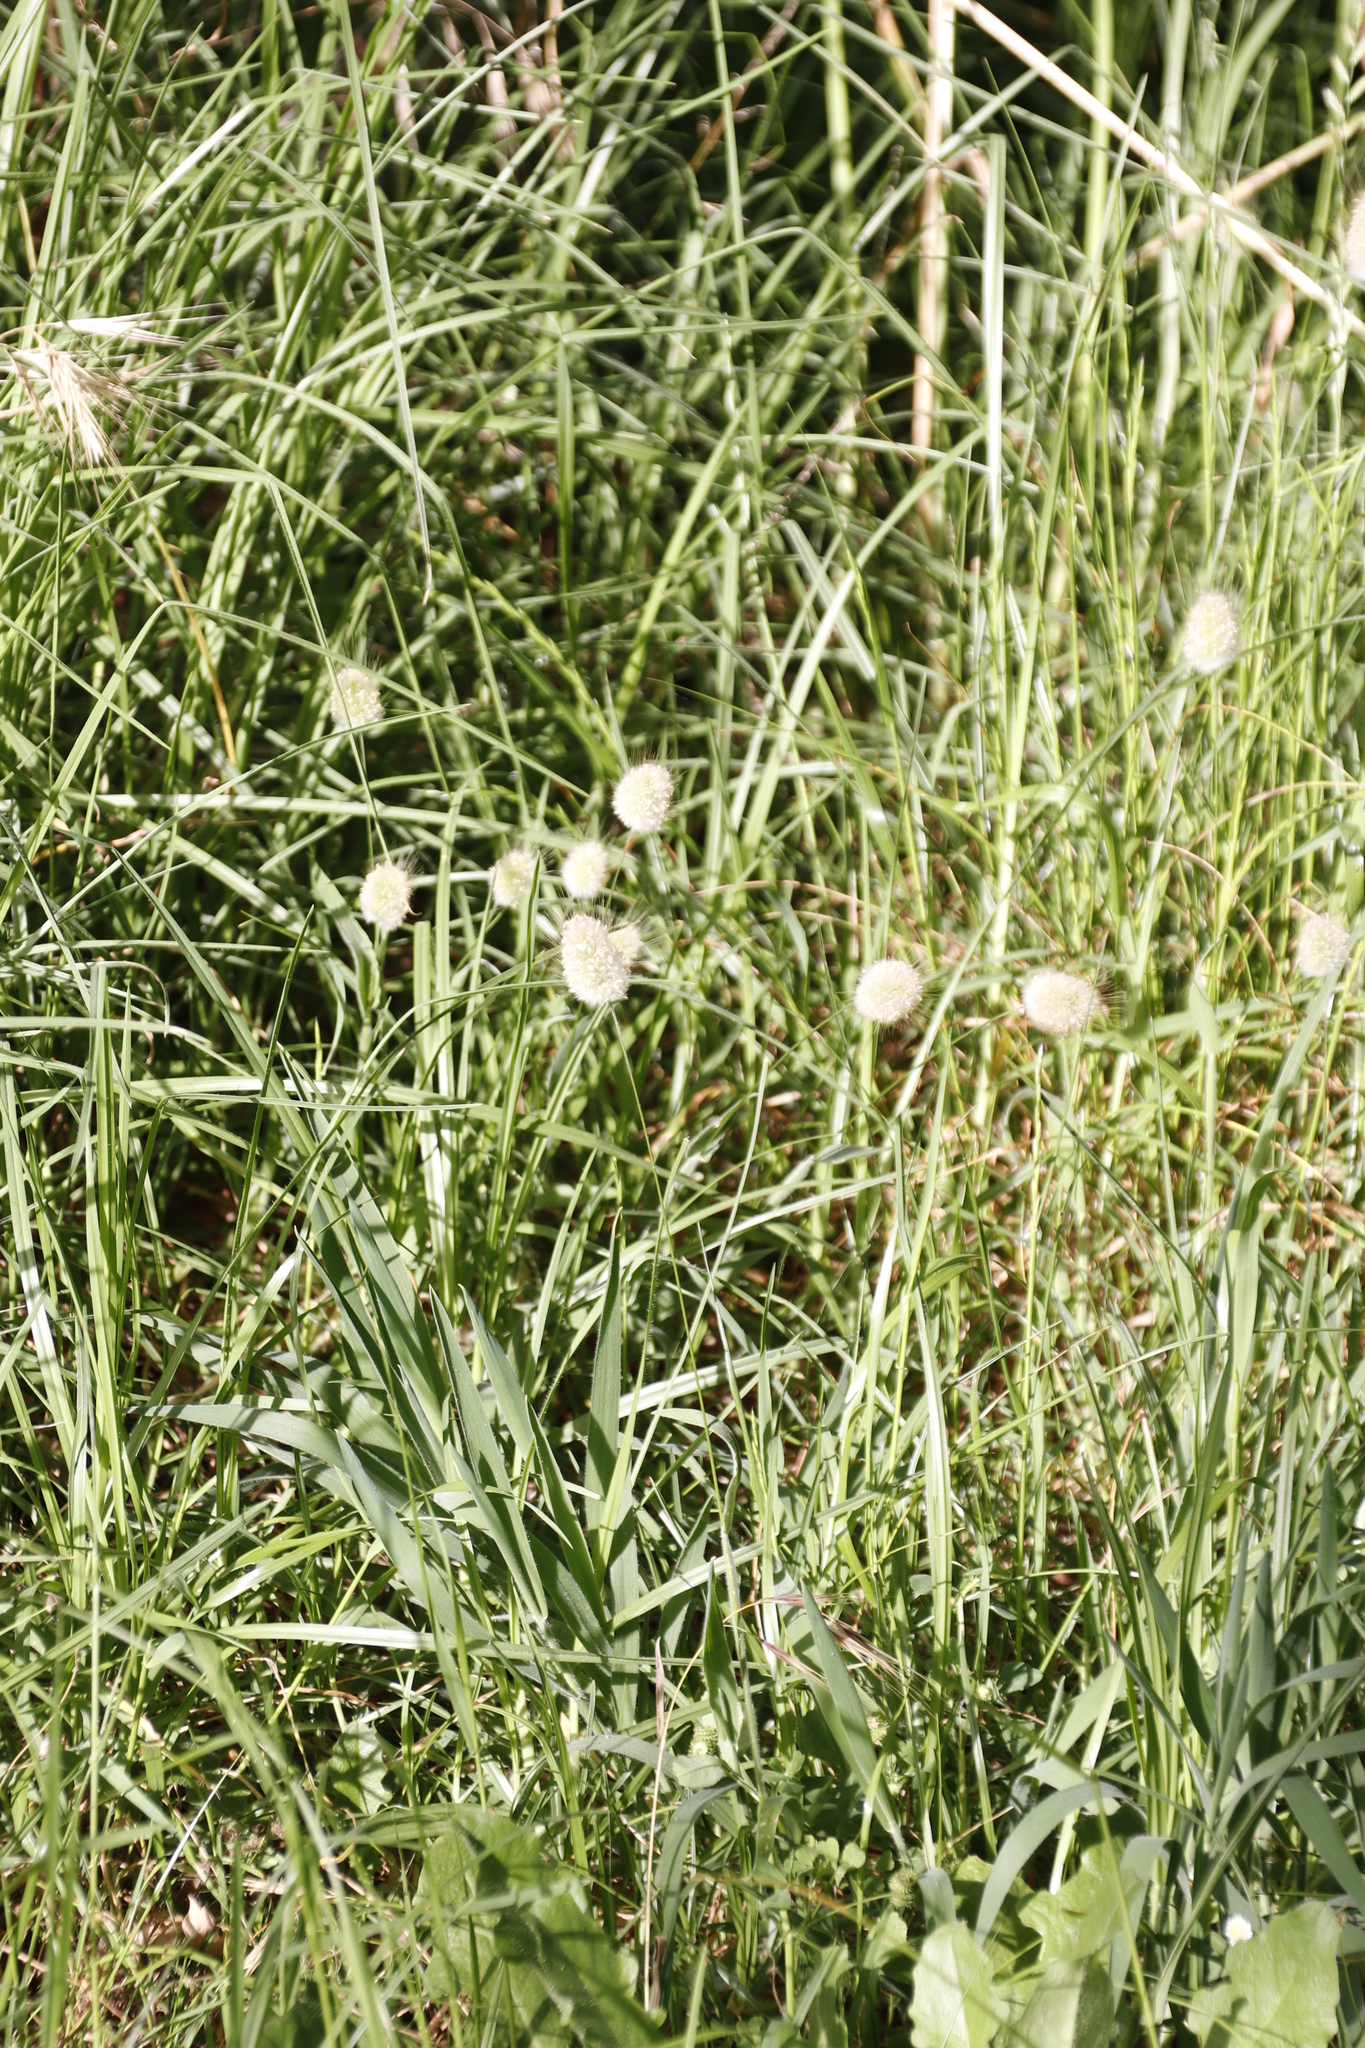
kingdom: Plantae
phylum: Tracheophyta
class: Liliopsida
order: Poales
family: Poaceae
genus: Lagurus
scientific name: Lagurus ovatus
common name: Hare's-tail
